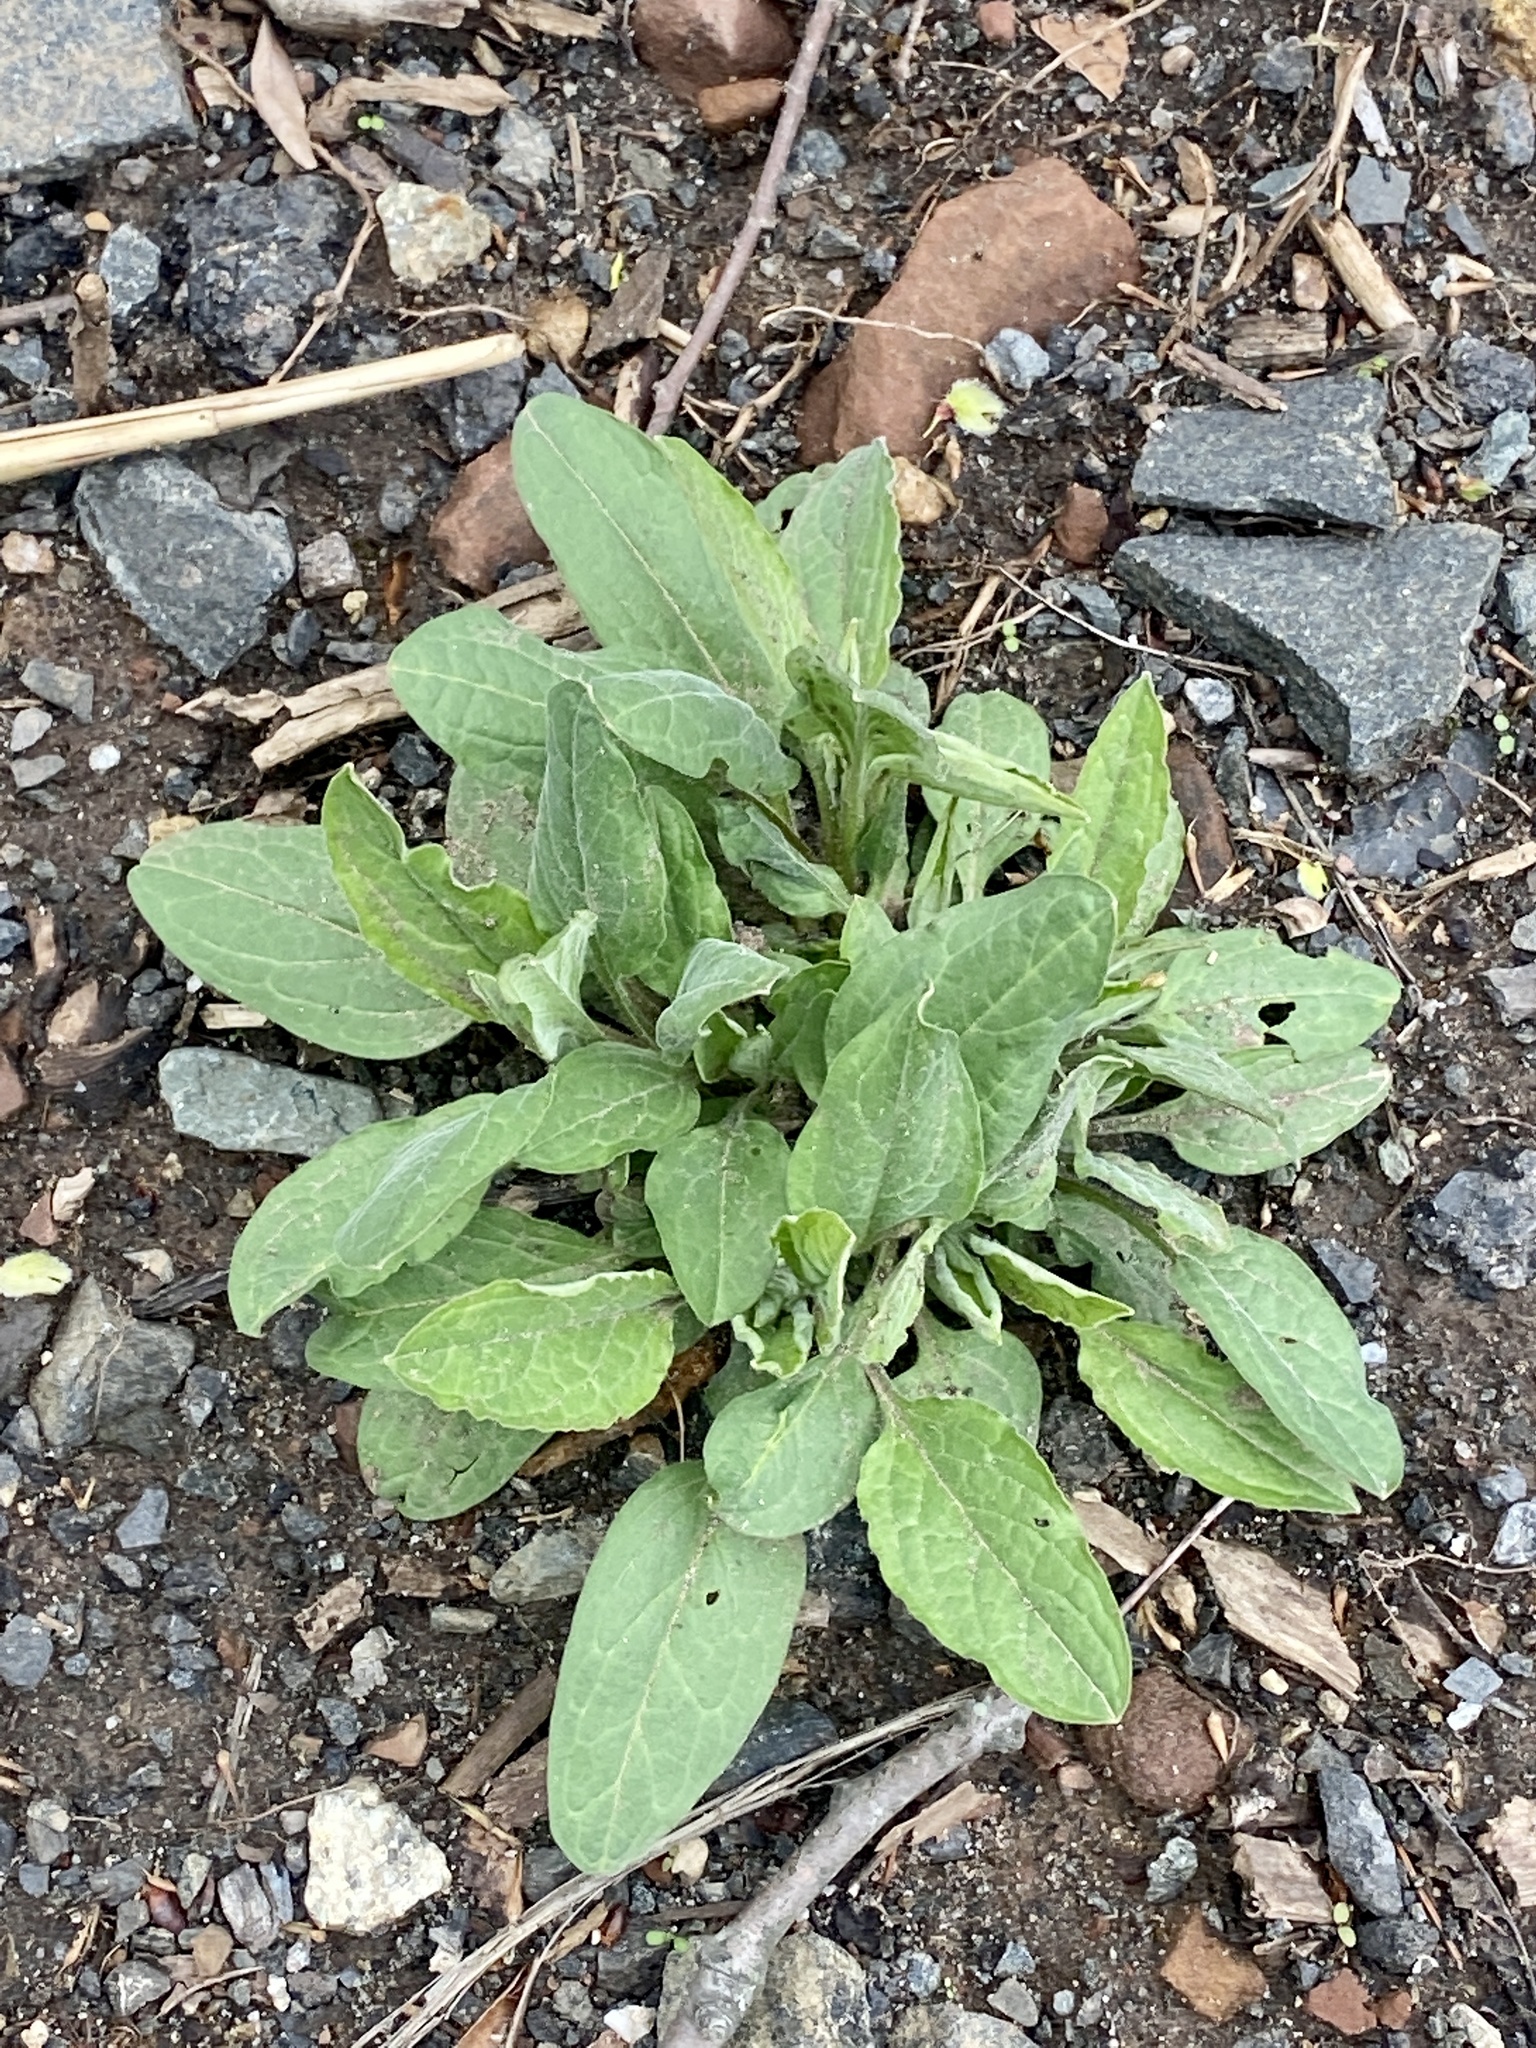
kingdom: Plantae
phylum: Tracheophyta
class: Magnoliopsida
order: Boraginales
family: Boraginaceae
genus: Hackelia
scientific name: Hackelia virginiana
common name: Beggar's-lice
